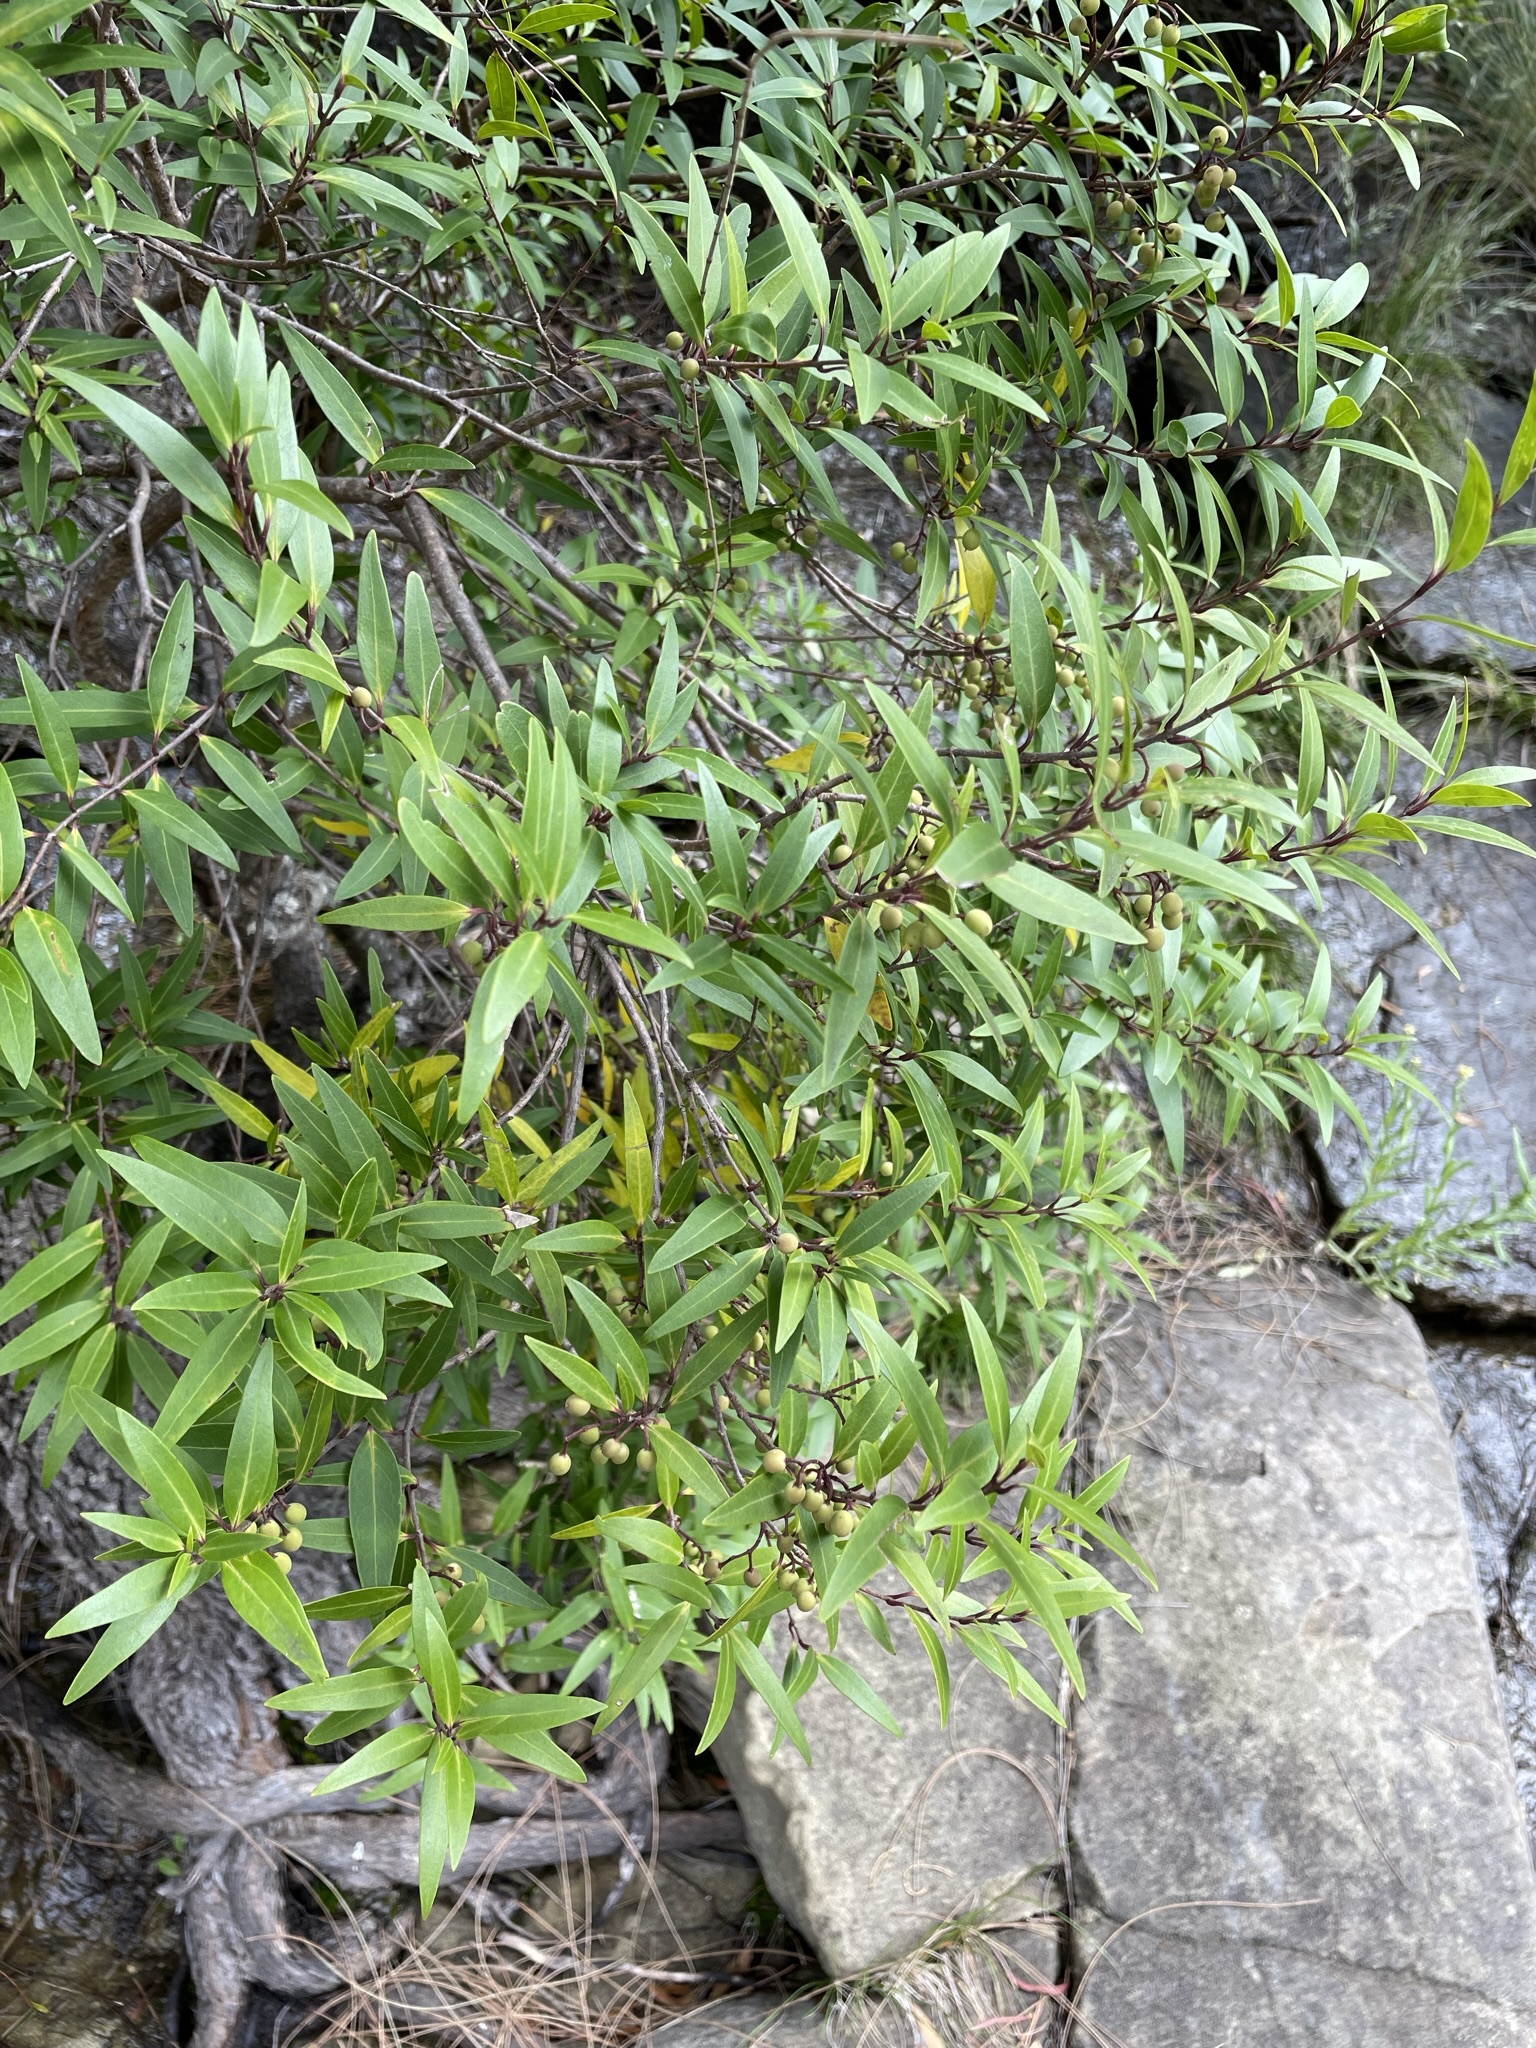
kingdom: Plantae
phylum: Tracheophyta
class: Magnoliopsida
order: Lamiales
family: Oleaceae
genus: Notelaea
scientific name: Notelaea ligustrina
